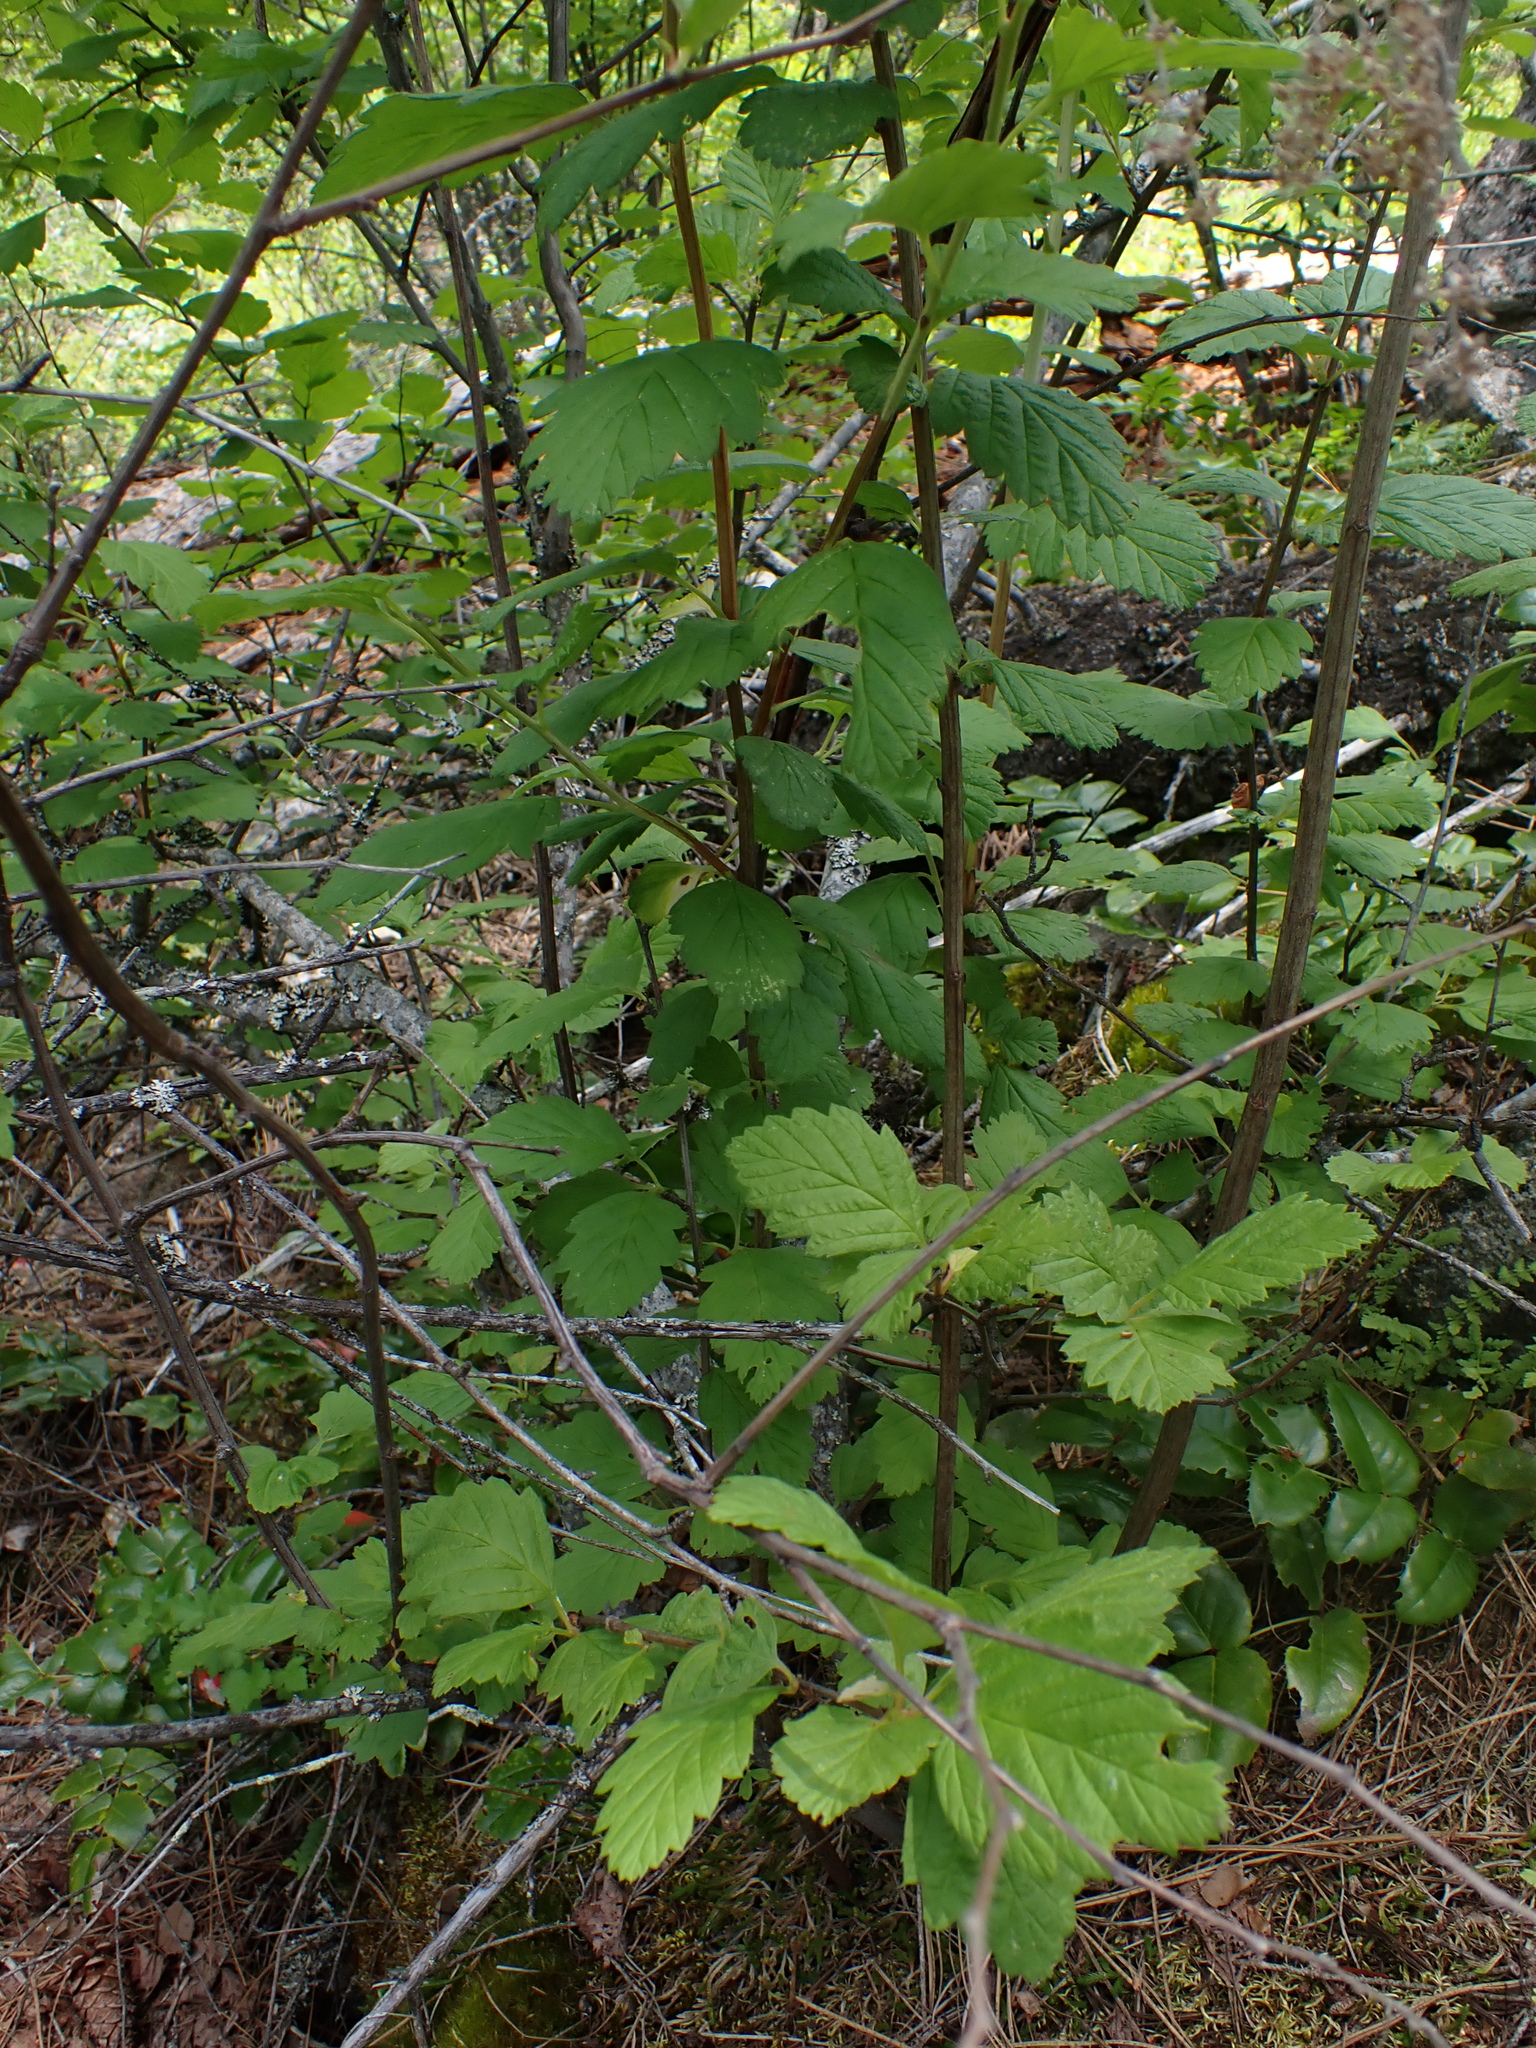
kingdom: Plantae
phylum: Tracheophyta
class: Magnoliopsida
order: Rosales
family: Rosaceae
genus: Holodiscus
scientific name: Holodiscus discolor
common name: Oceanspray
